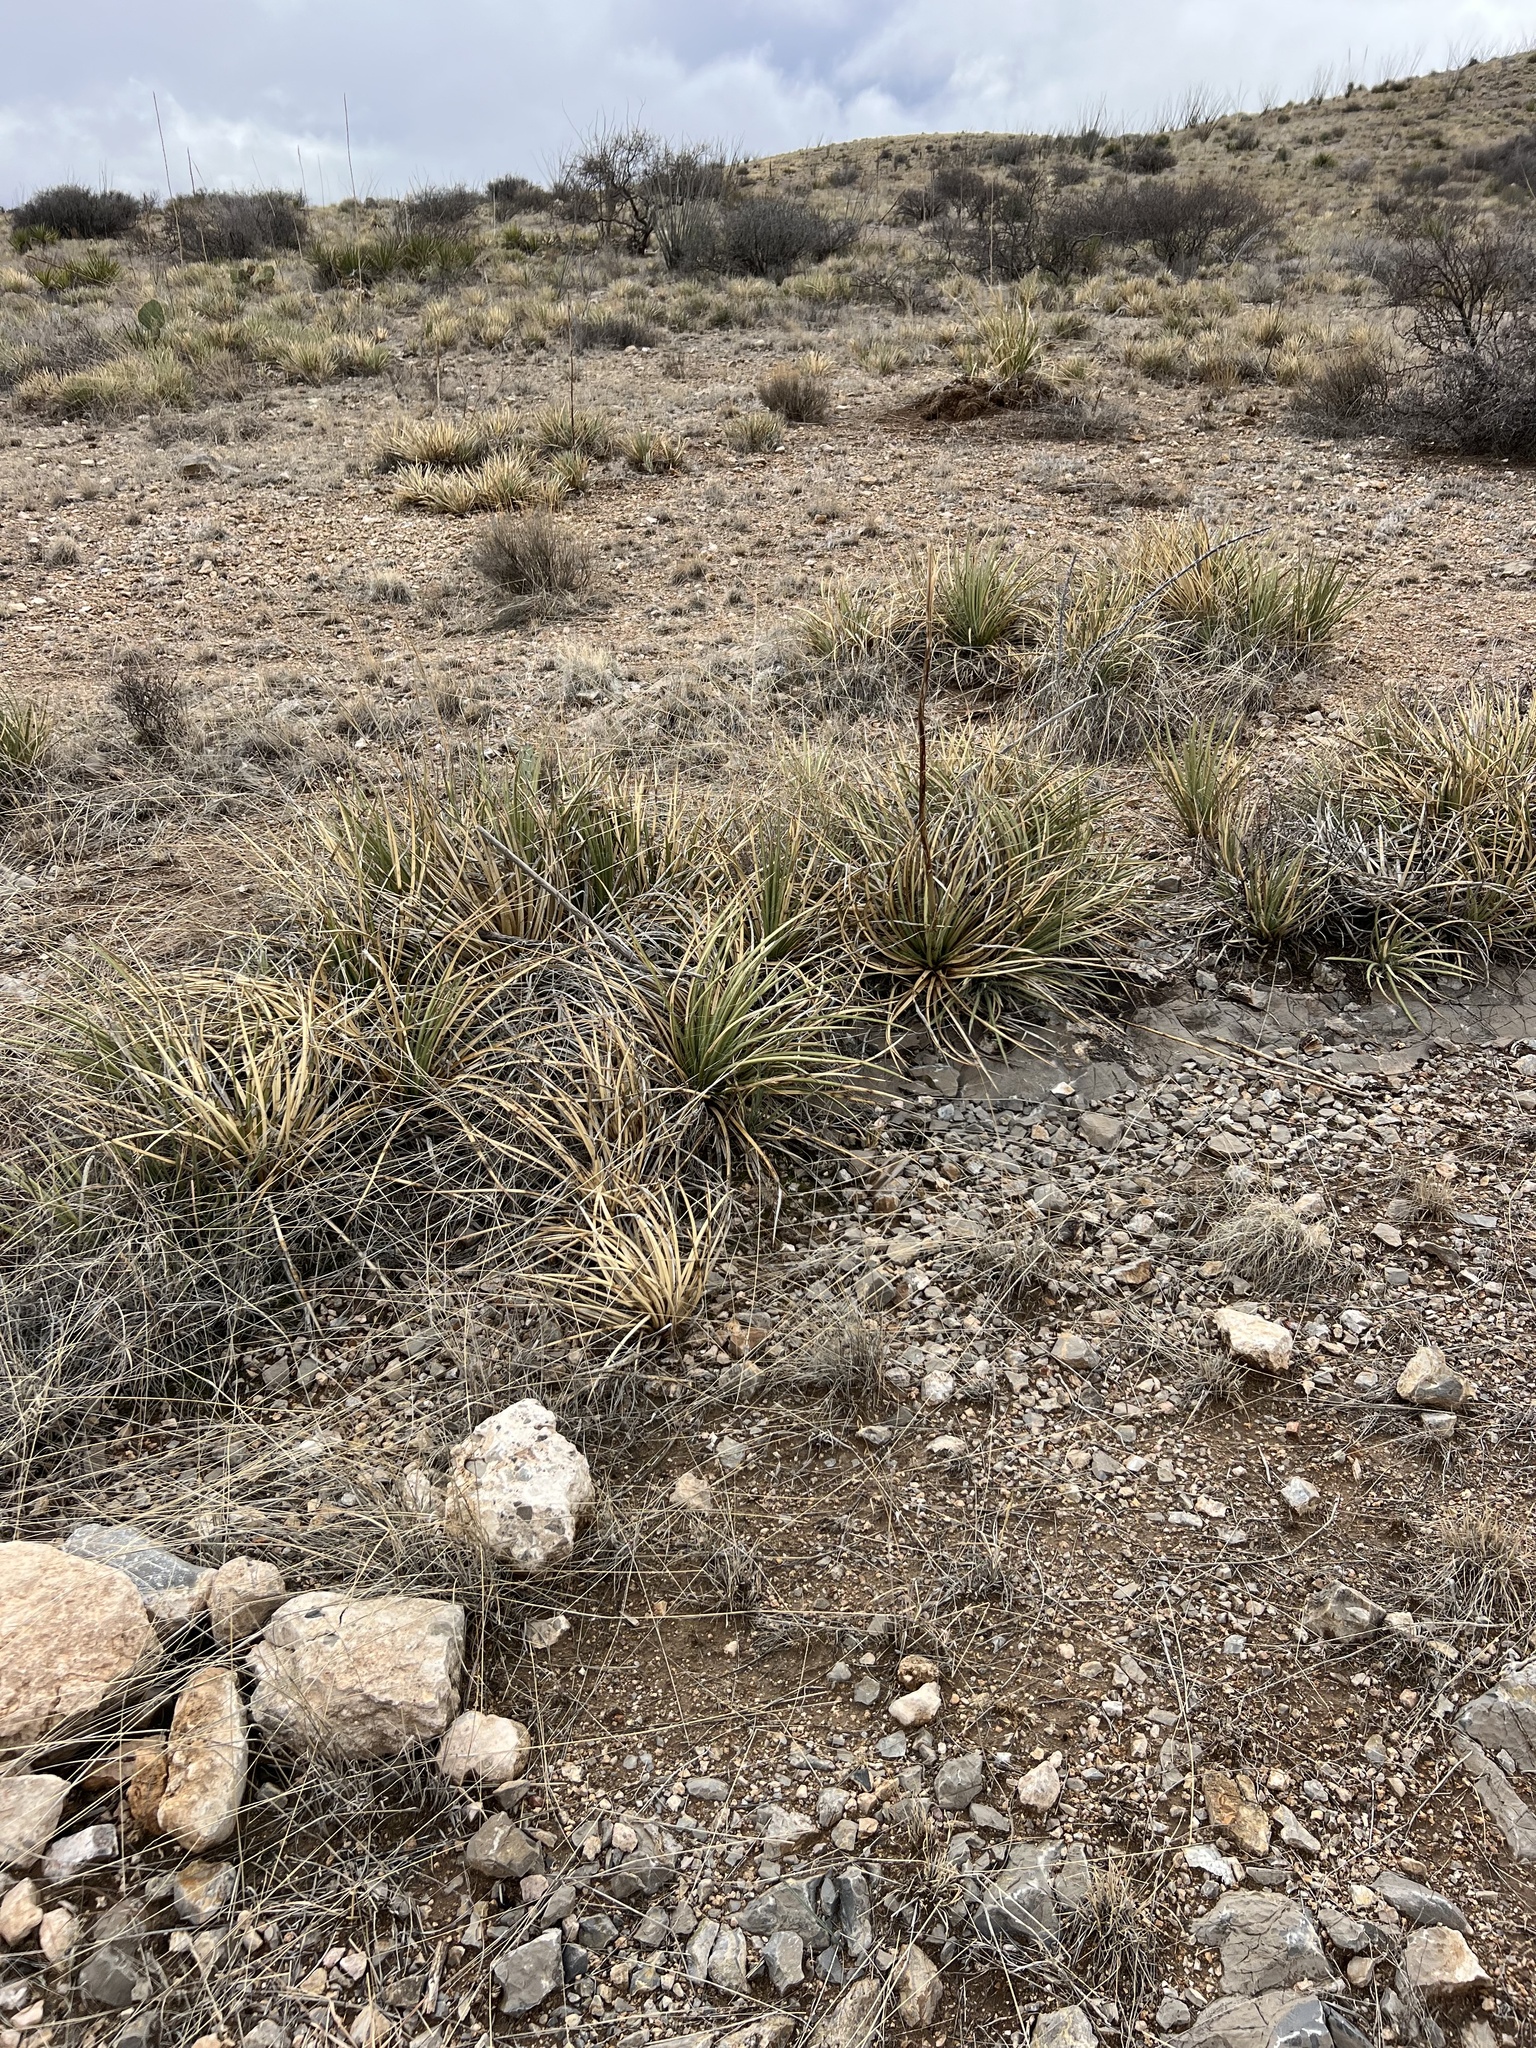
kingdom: Plantae
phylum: Tracheophyta
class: Liliopsida
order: Asparagales
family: Asparagaceae
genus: Agave
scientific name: Agave schottii
